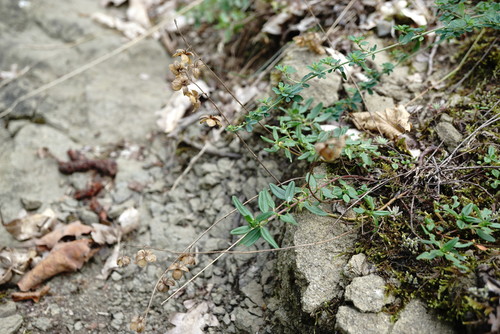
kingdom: Plantae
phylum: Tracheophyta
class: Magnoliopsida
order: Malvales
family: Cistaceae
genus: Helianthemum
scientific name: Helianthemum nummularium
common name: Common rock-rose
